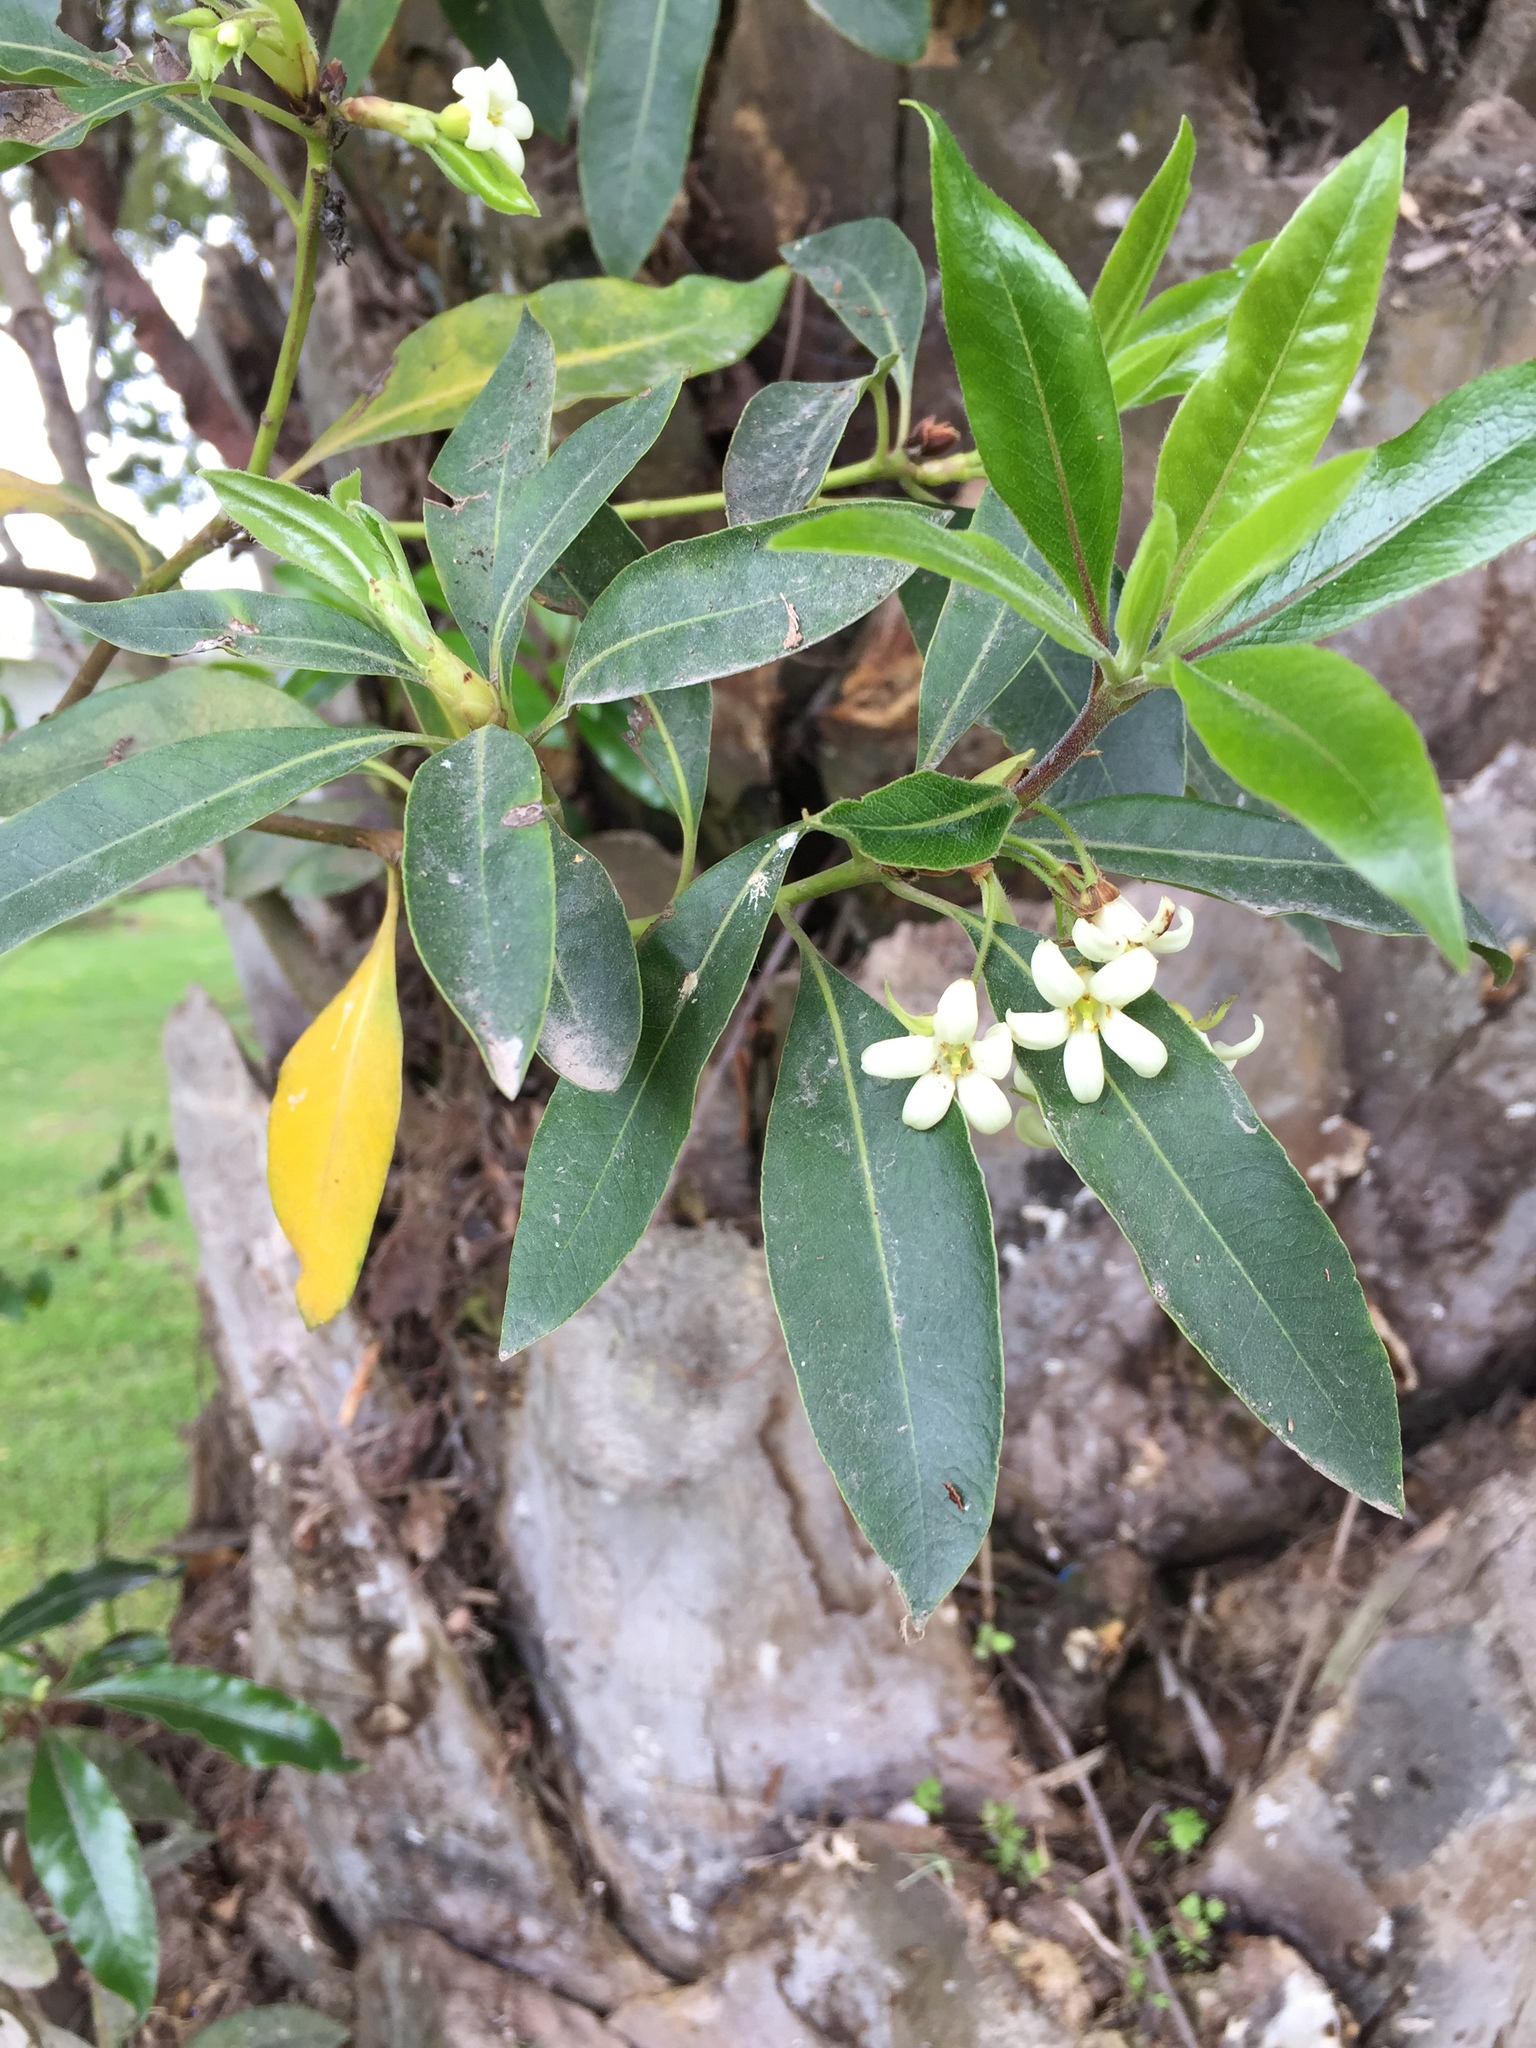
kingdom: Plantae
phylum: Tracheophyta
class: Magnoliopsida
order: Apiales
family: Pittosporaceae
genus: Pittosporum
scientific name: Pittosporum undulatum
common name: Australian cheesewood
